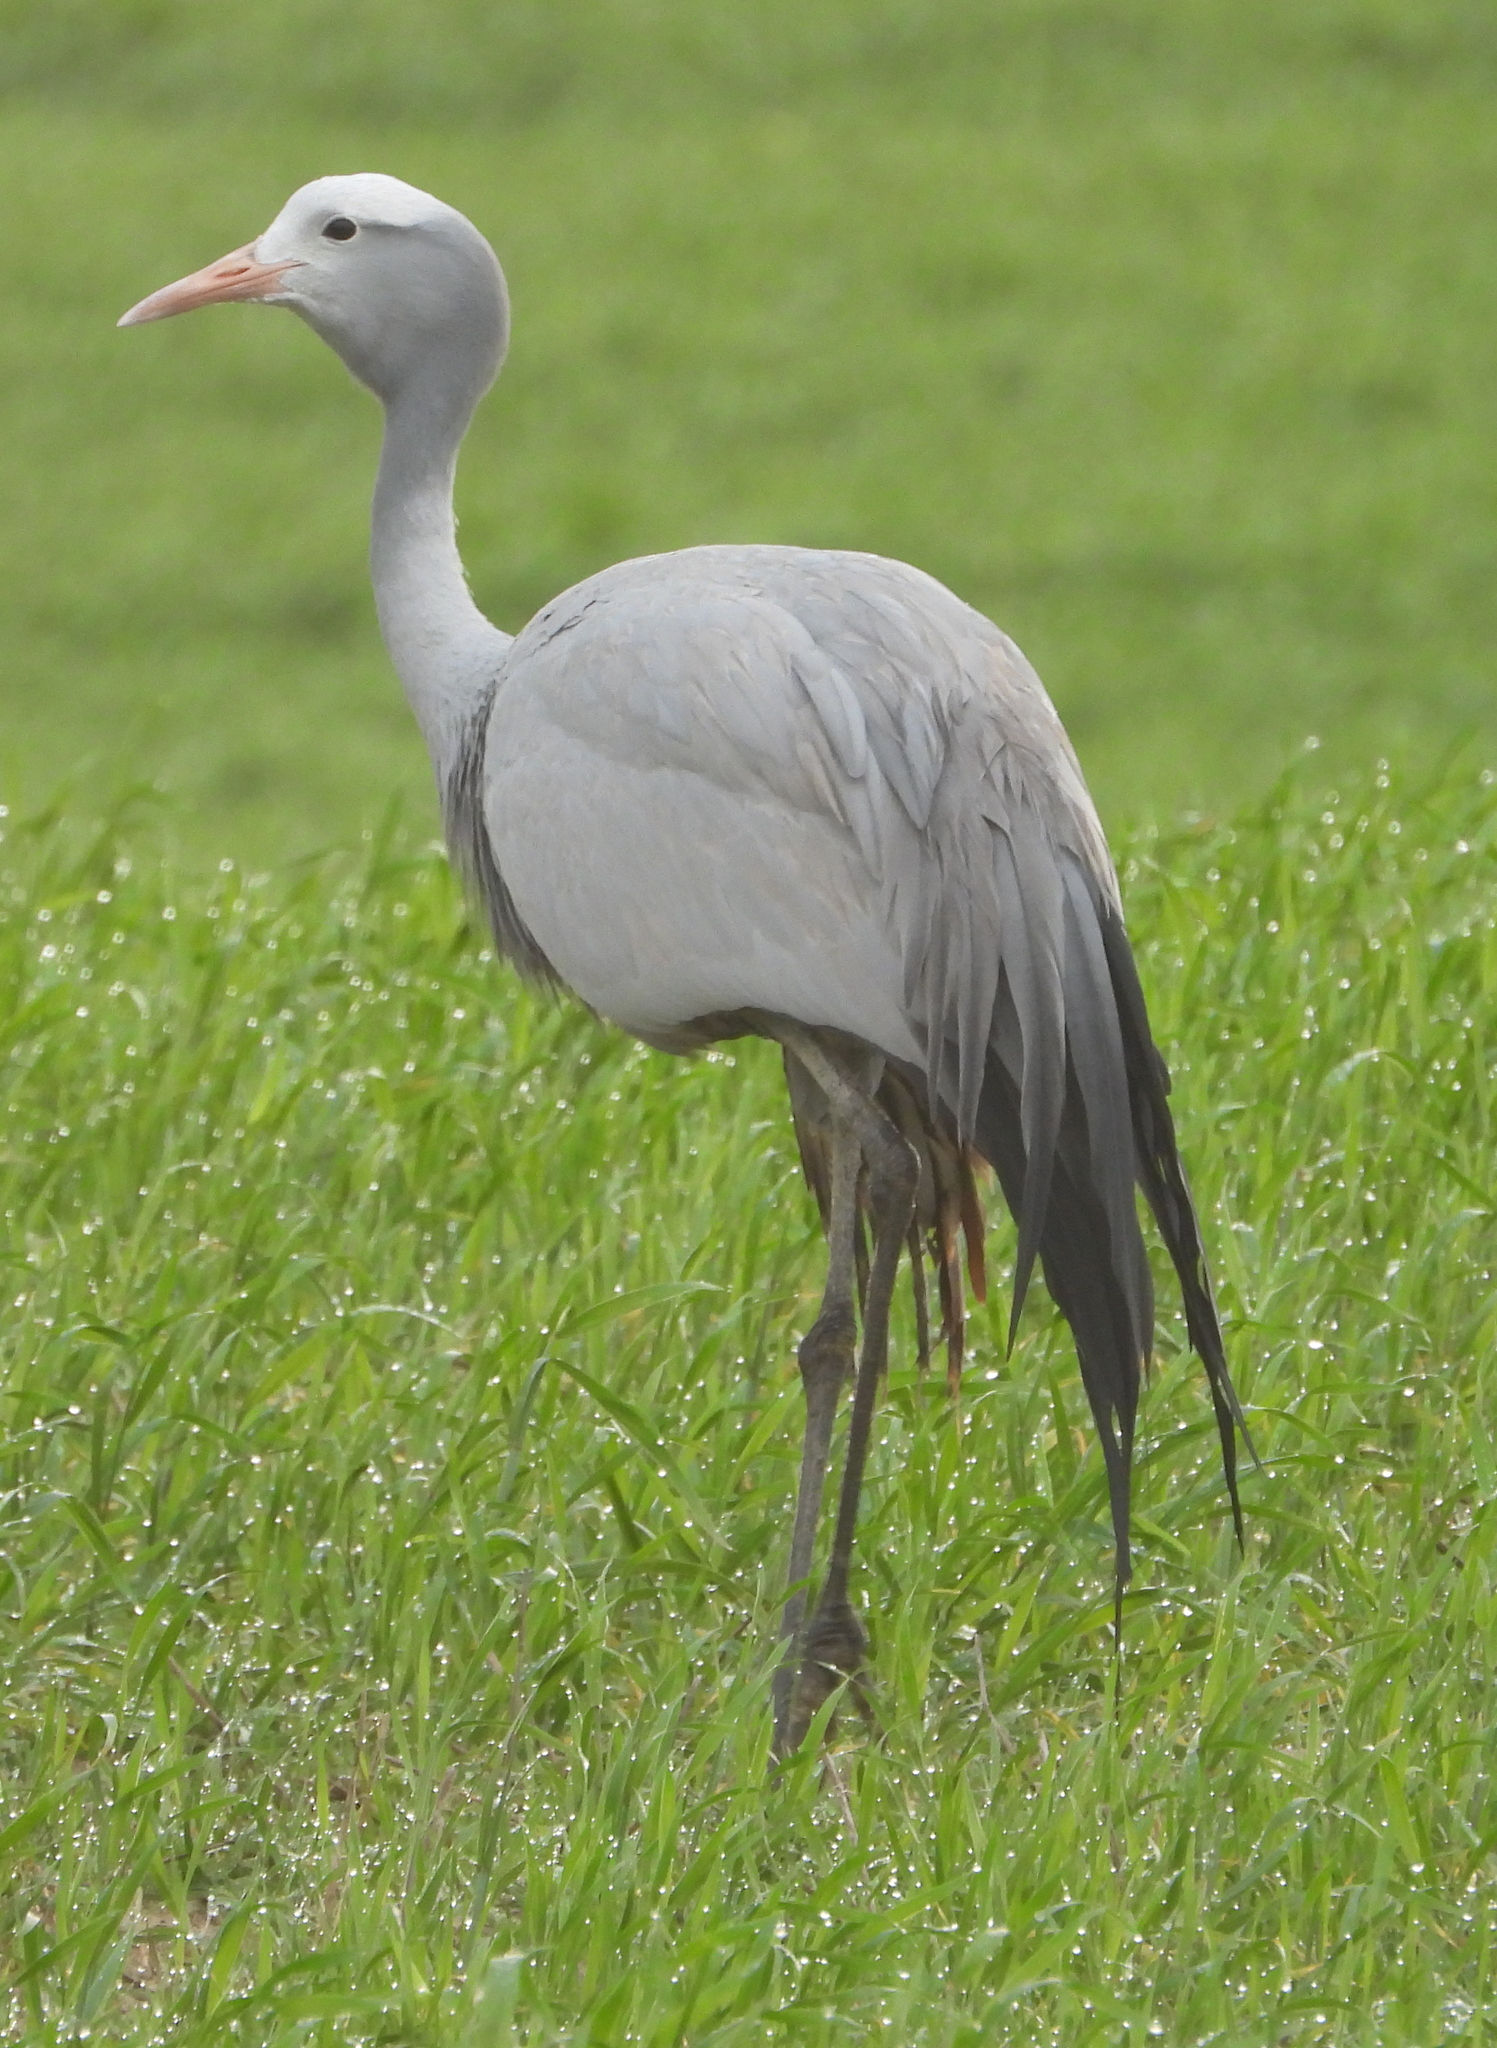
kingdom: Animalia
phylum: Chordata
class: Aves
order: Gruiformes
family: Gruidae
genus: Anthropoides
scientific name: Anthropoides paradiseus
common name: Blue crane
